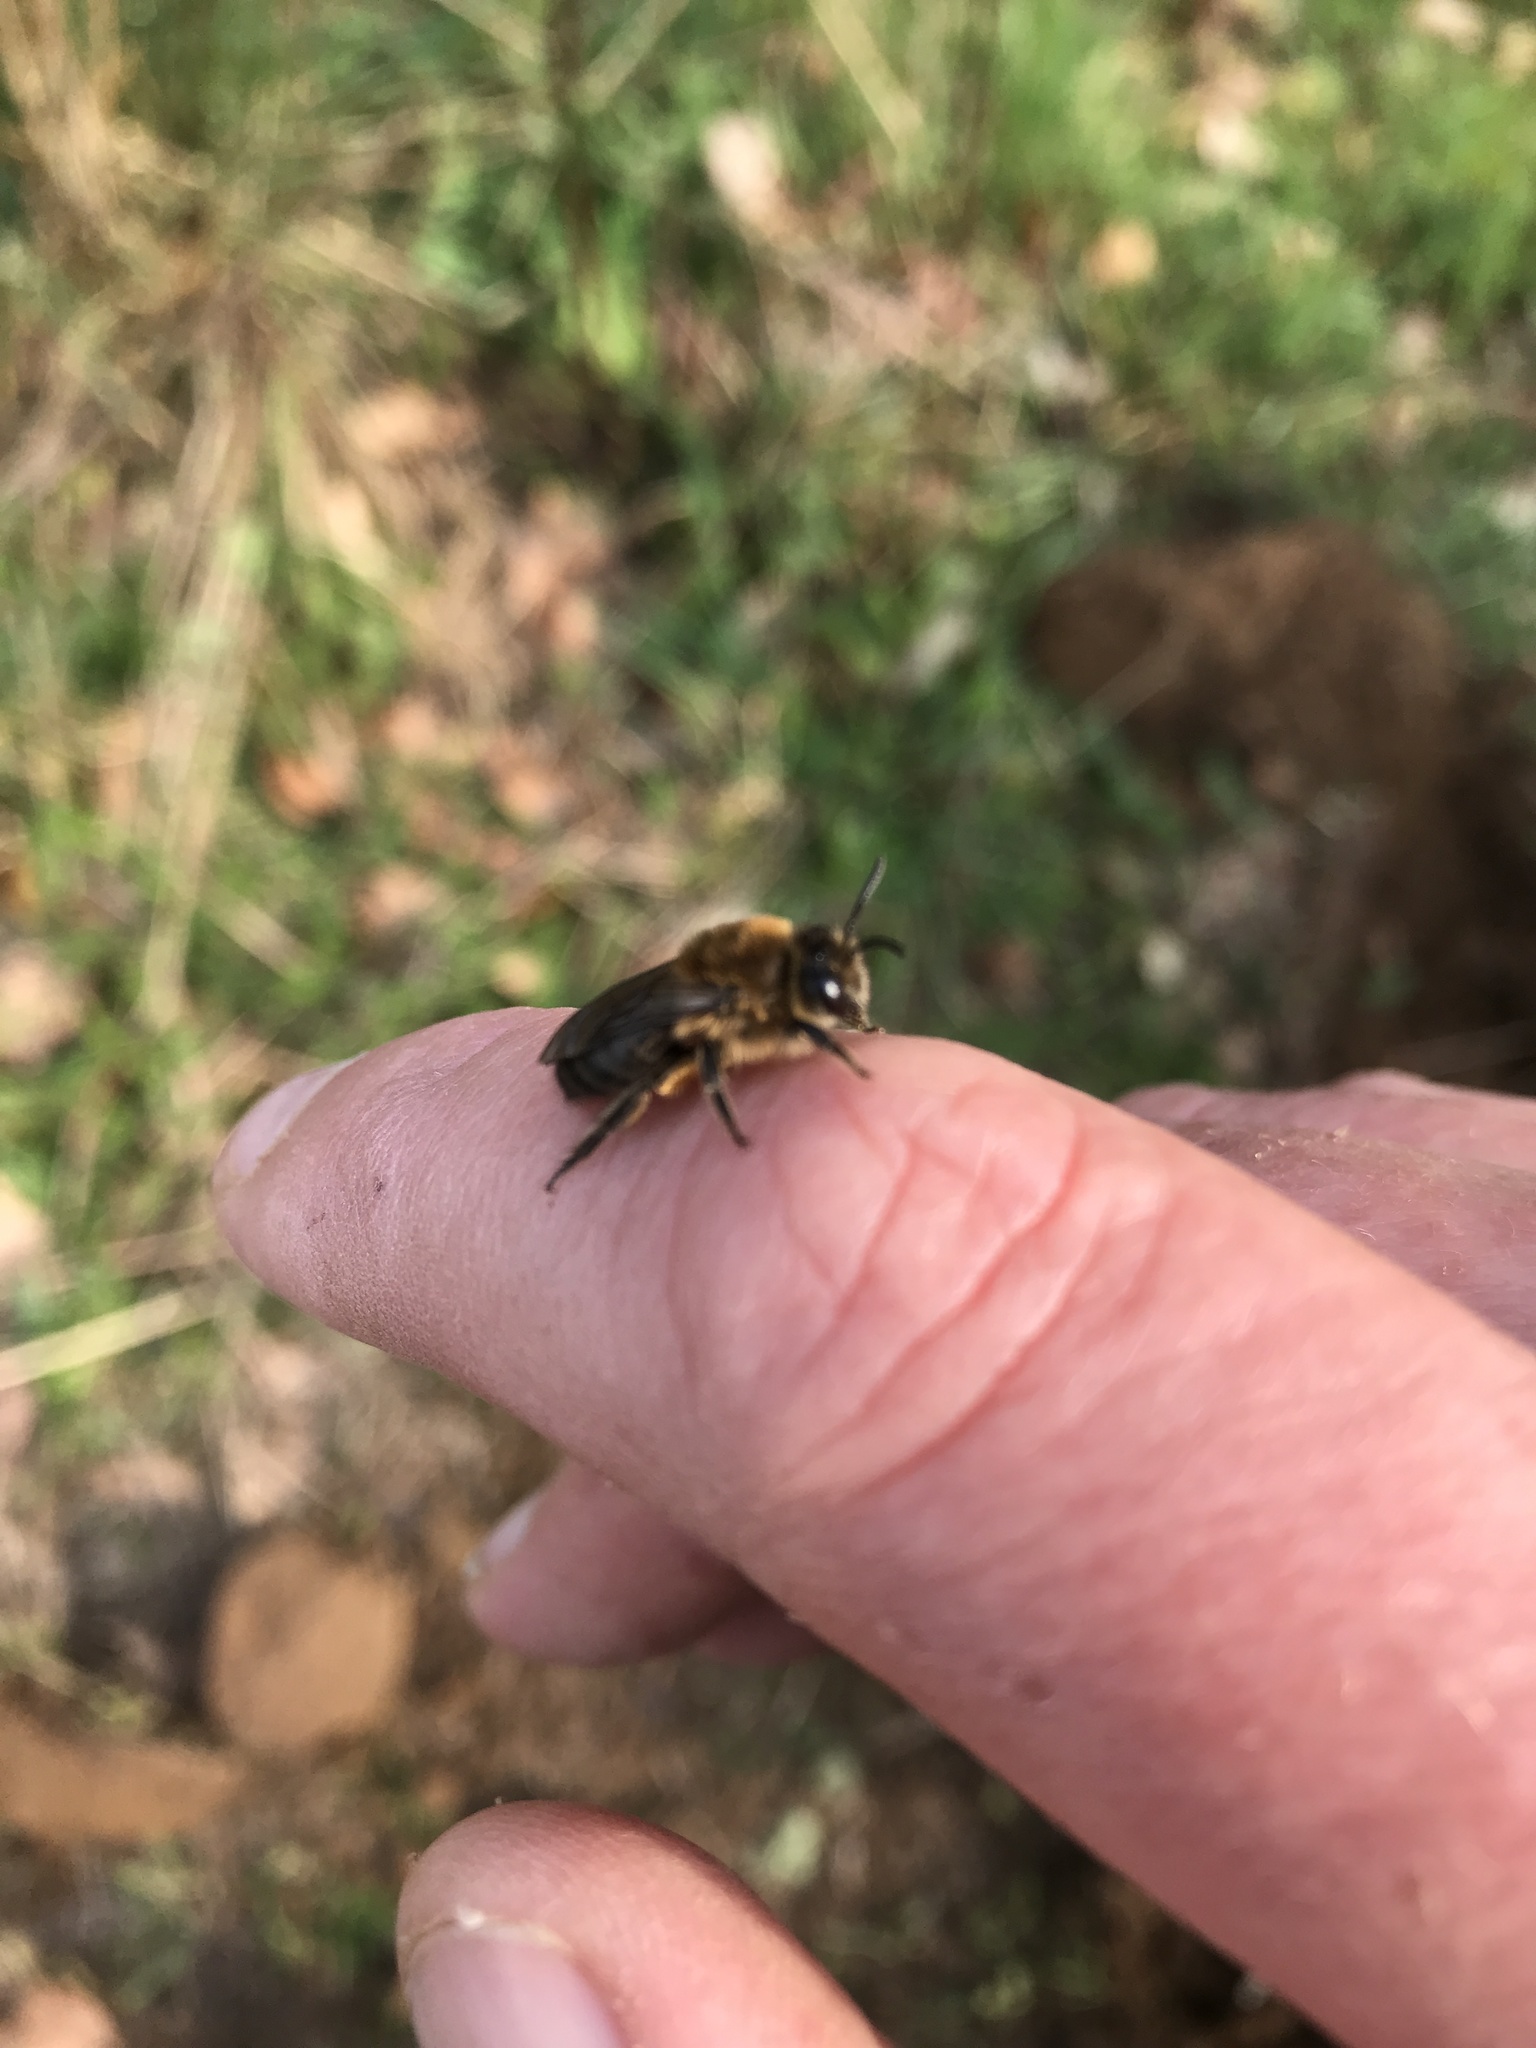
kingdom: Animalia
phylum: Arthropoda
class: Insecta
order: Hymenoptera
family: Colletidae
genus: Colletes
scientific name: Colletes cunicularius
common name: Early colletes
